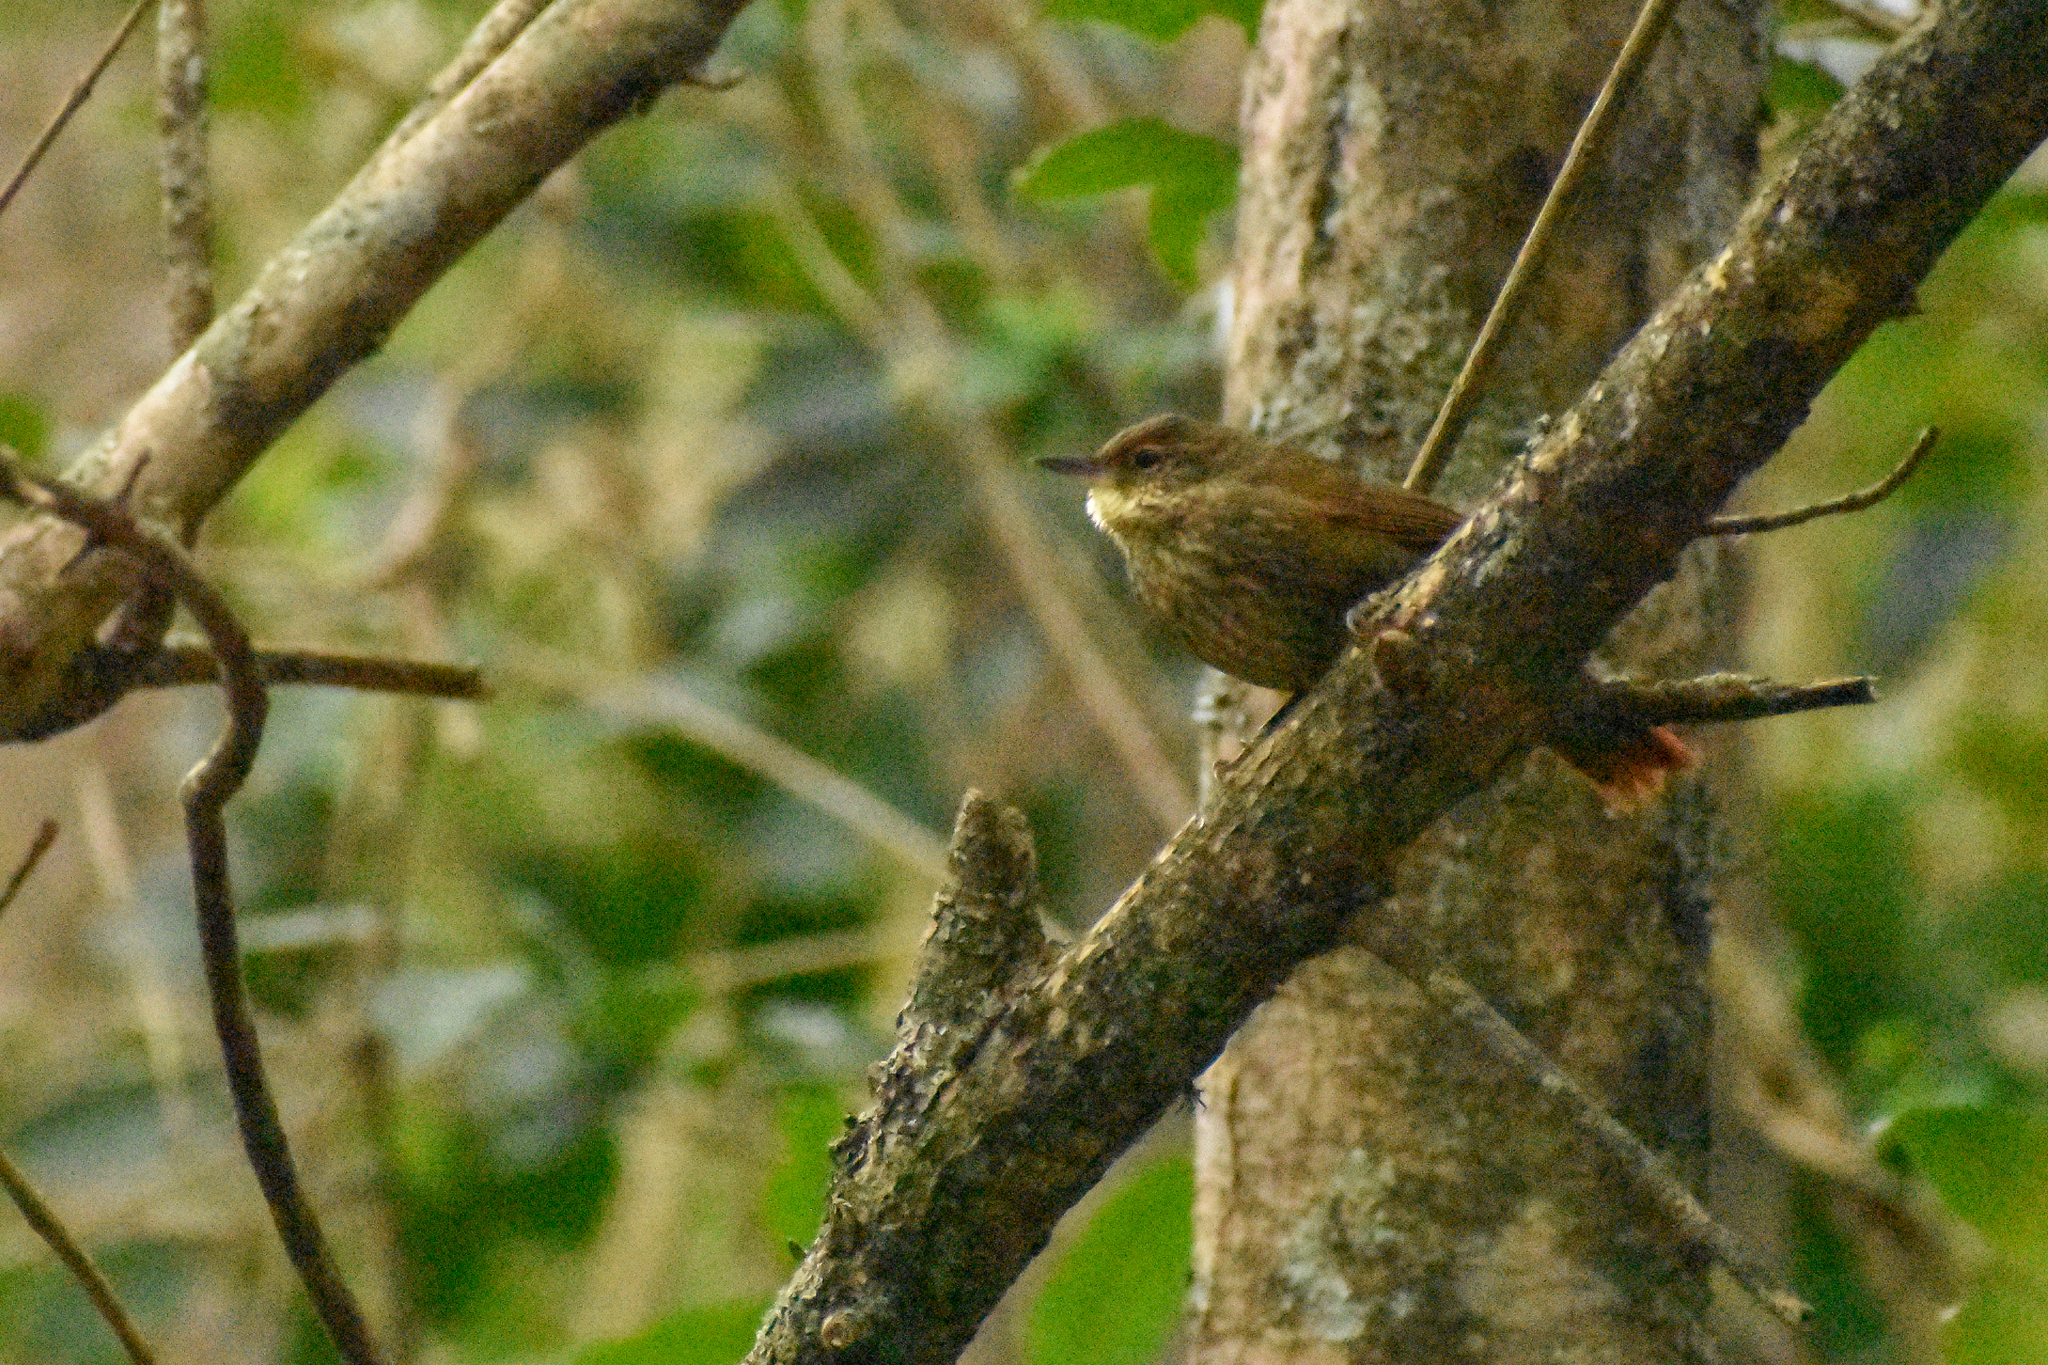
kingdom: Animalia
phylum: Chordata
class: Aves
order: Passeriformes
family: Furnariidae
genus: Syndactyla
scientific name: Syndactyla rufosuperciliata
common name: Buff-browed foliage-gleaner
